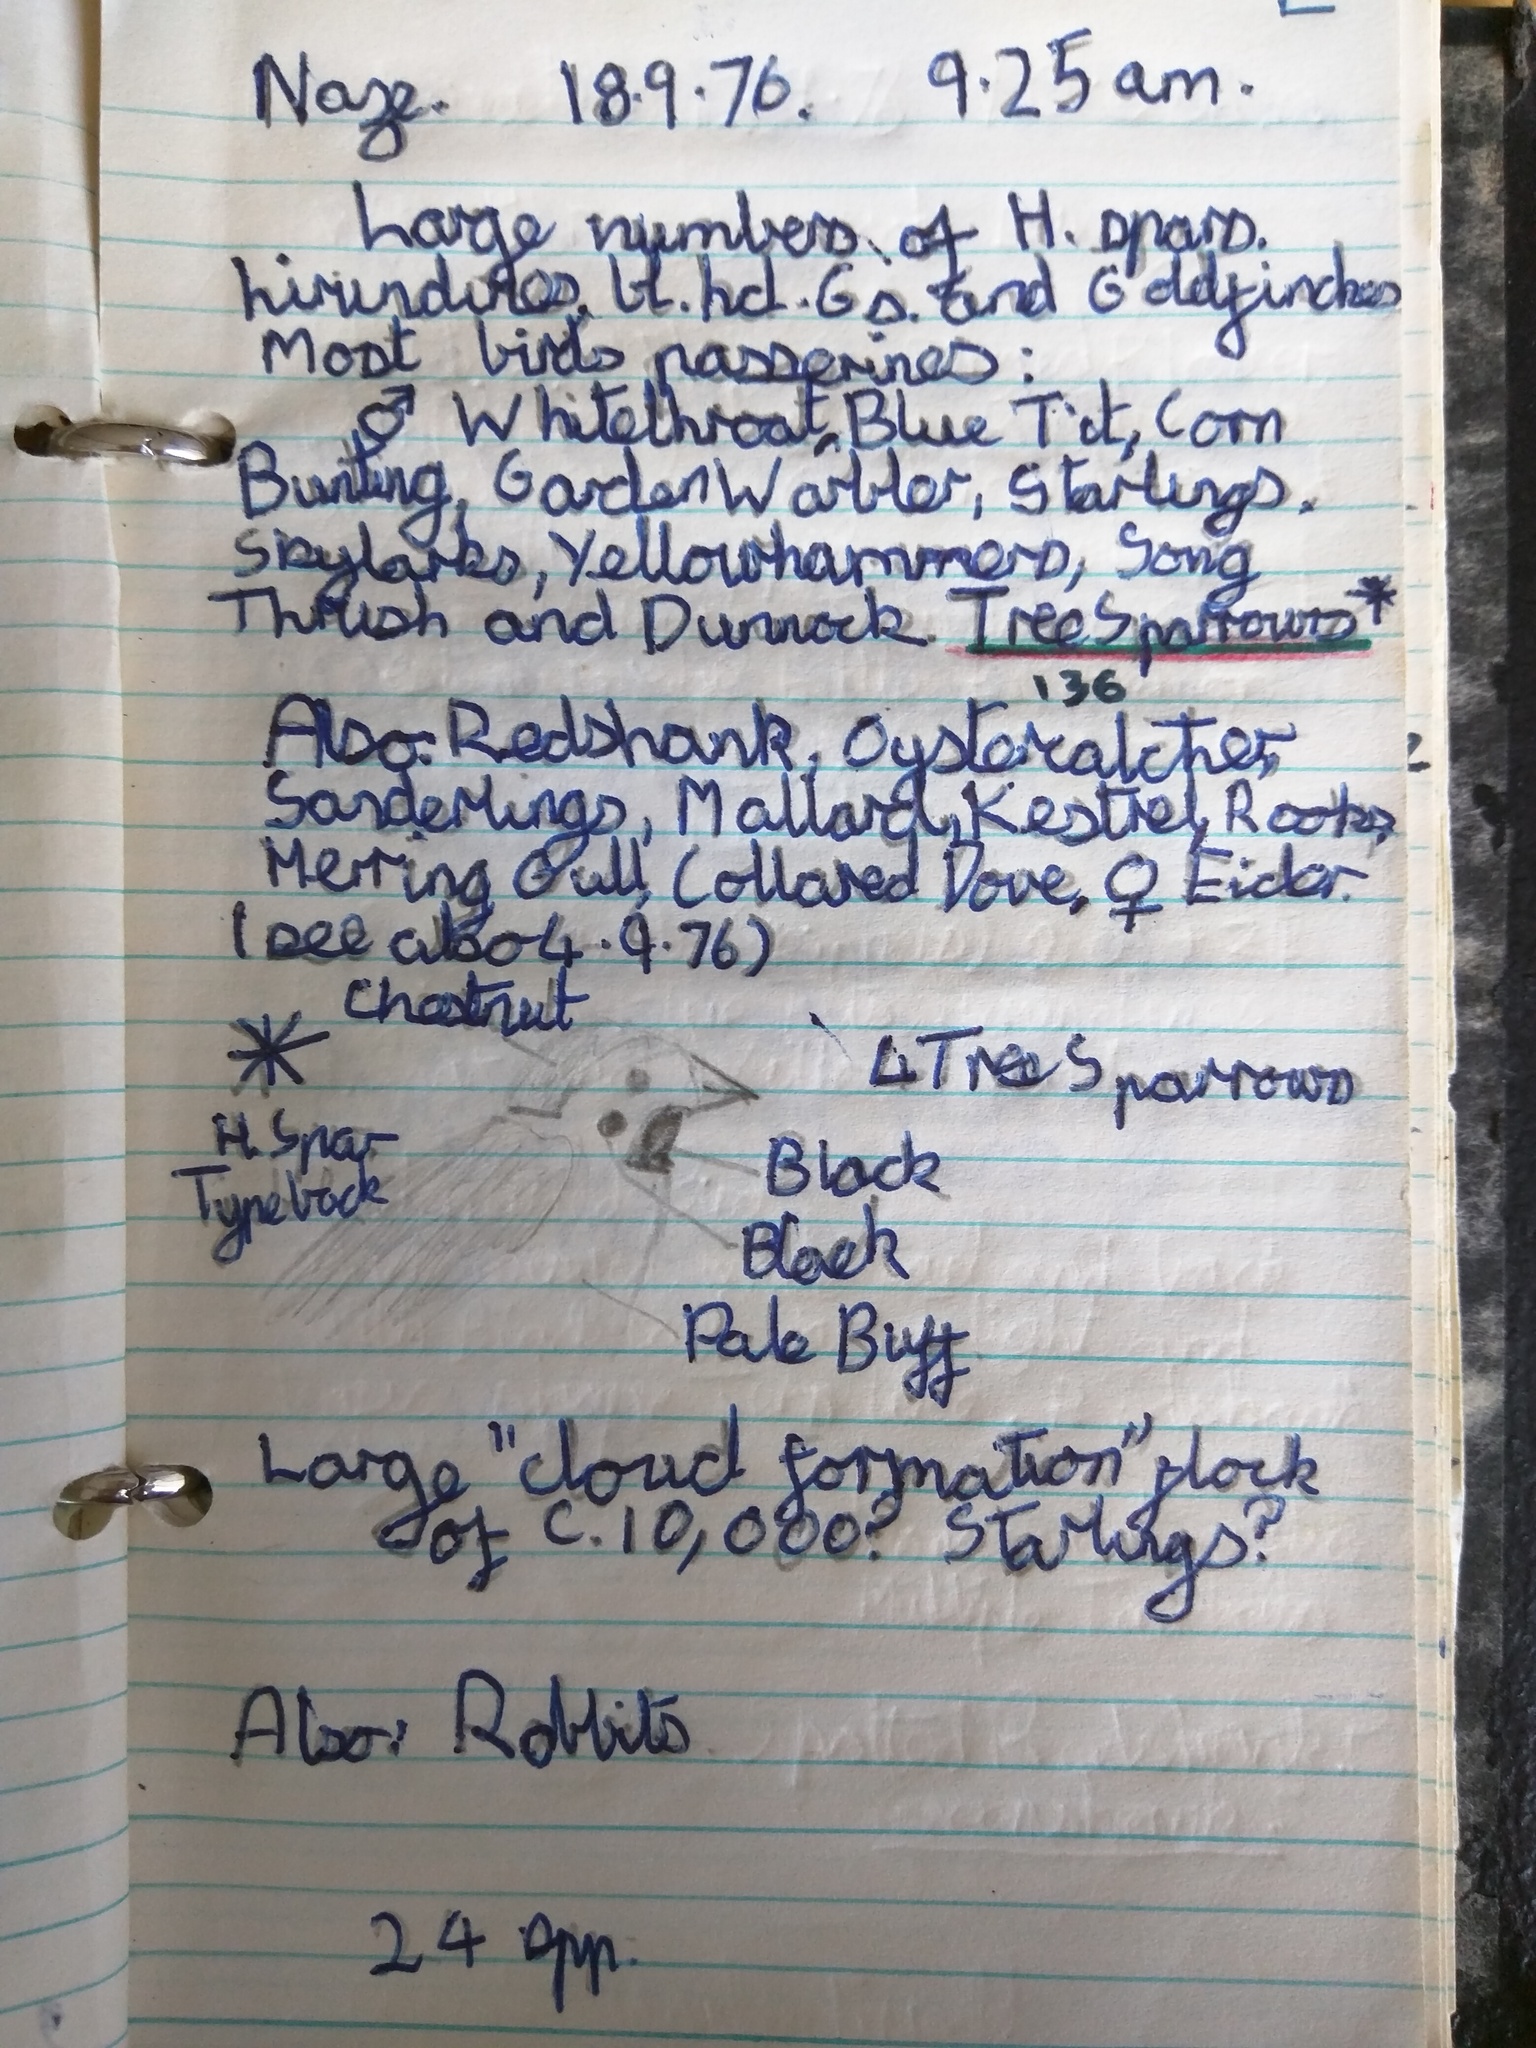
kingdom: Animalia
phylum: Chordata
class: Aves
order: Passeriformes
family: Passeridae
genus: Passer
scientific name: Passer montanus
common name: Eurasian tree sparrow
